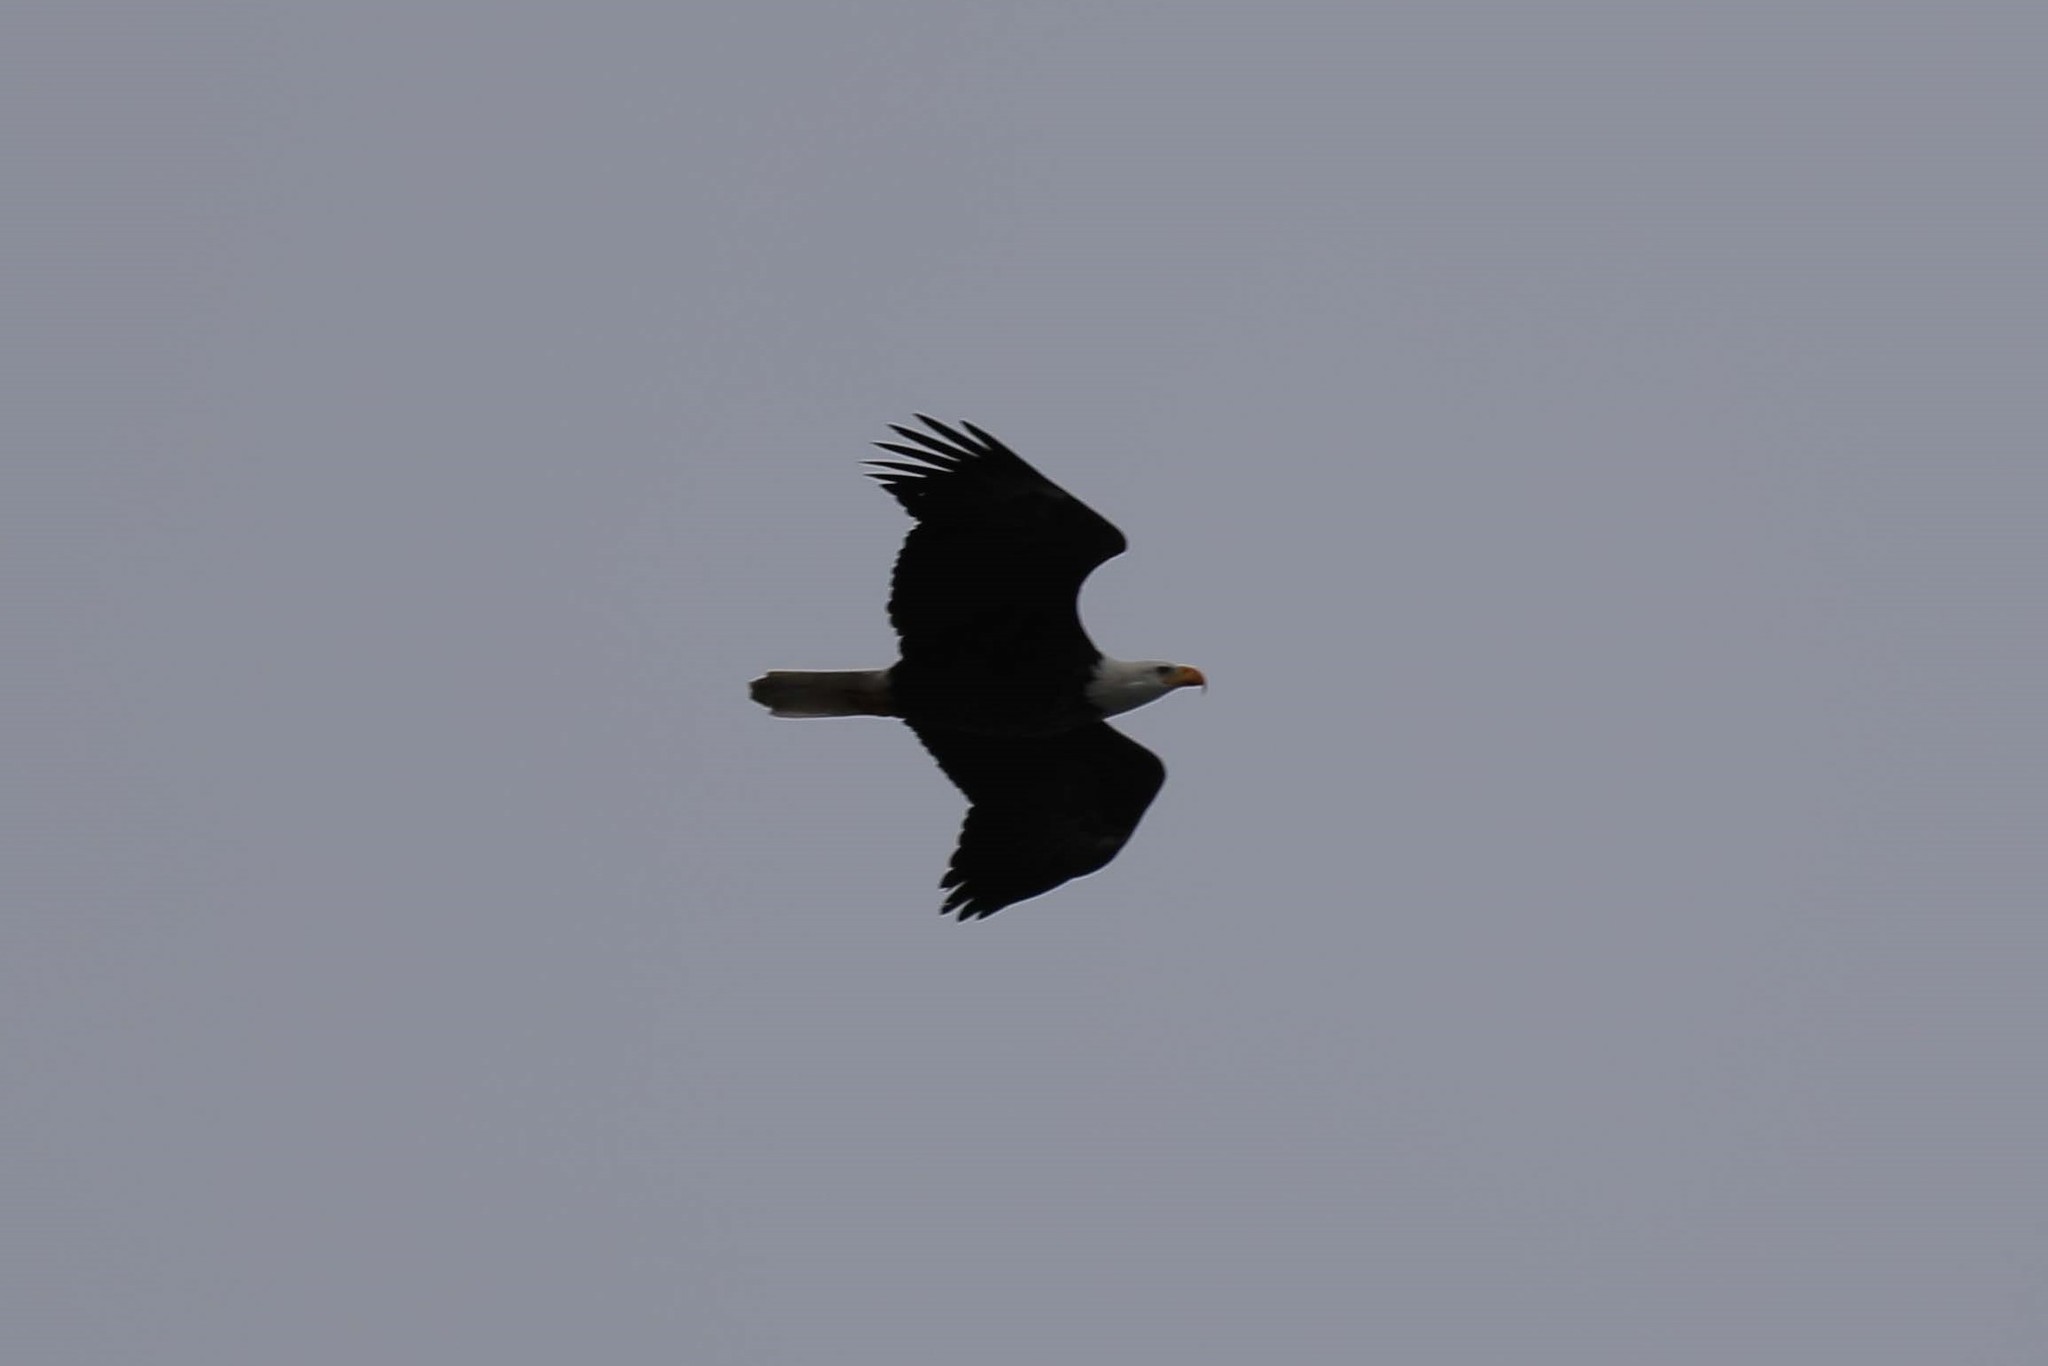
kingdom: Animalia
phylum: Chordata
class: Aves
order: Accipitriformes
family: Accipitridae
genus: Haliaeetus
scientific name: Haliaeetus leucocephalus
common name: Bald eagle
